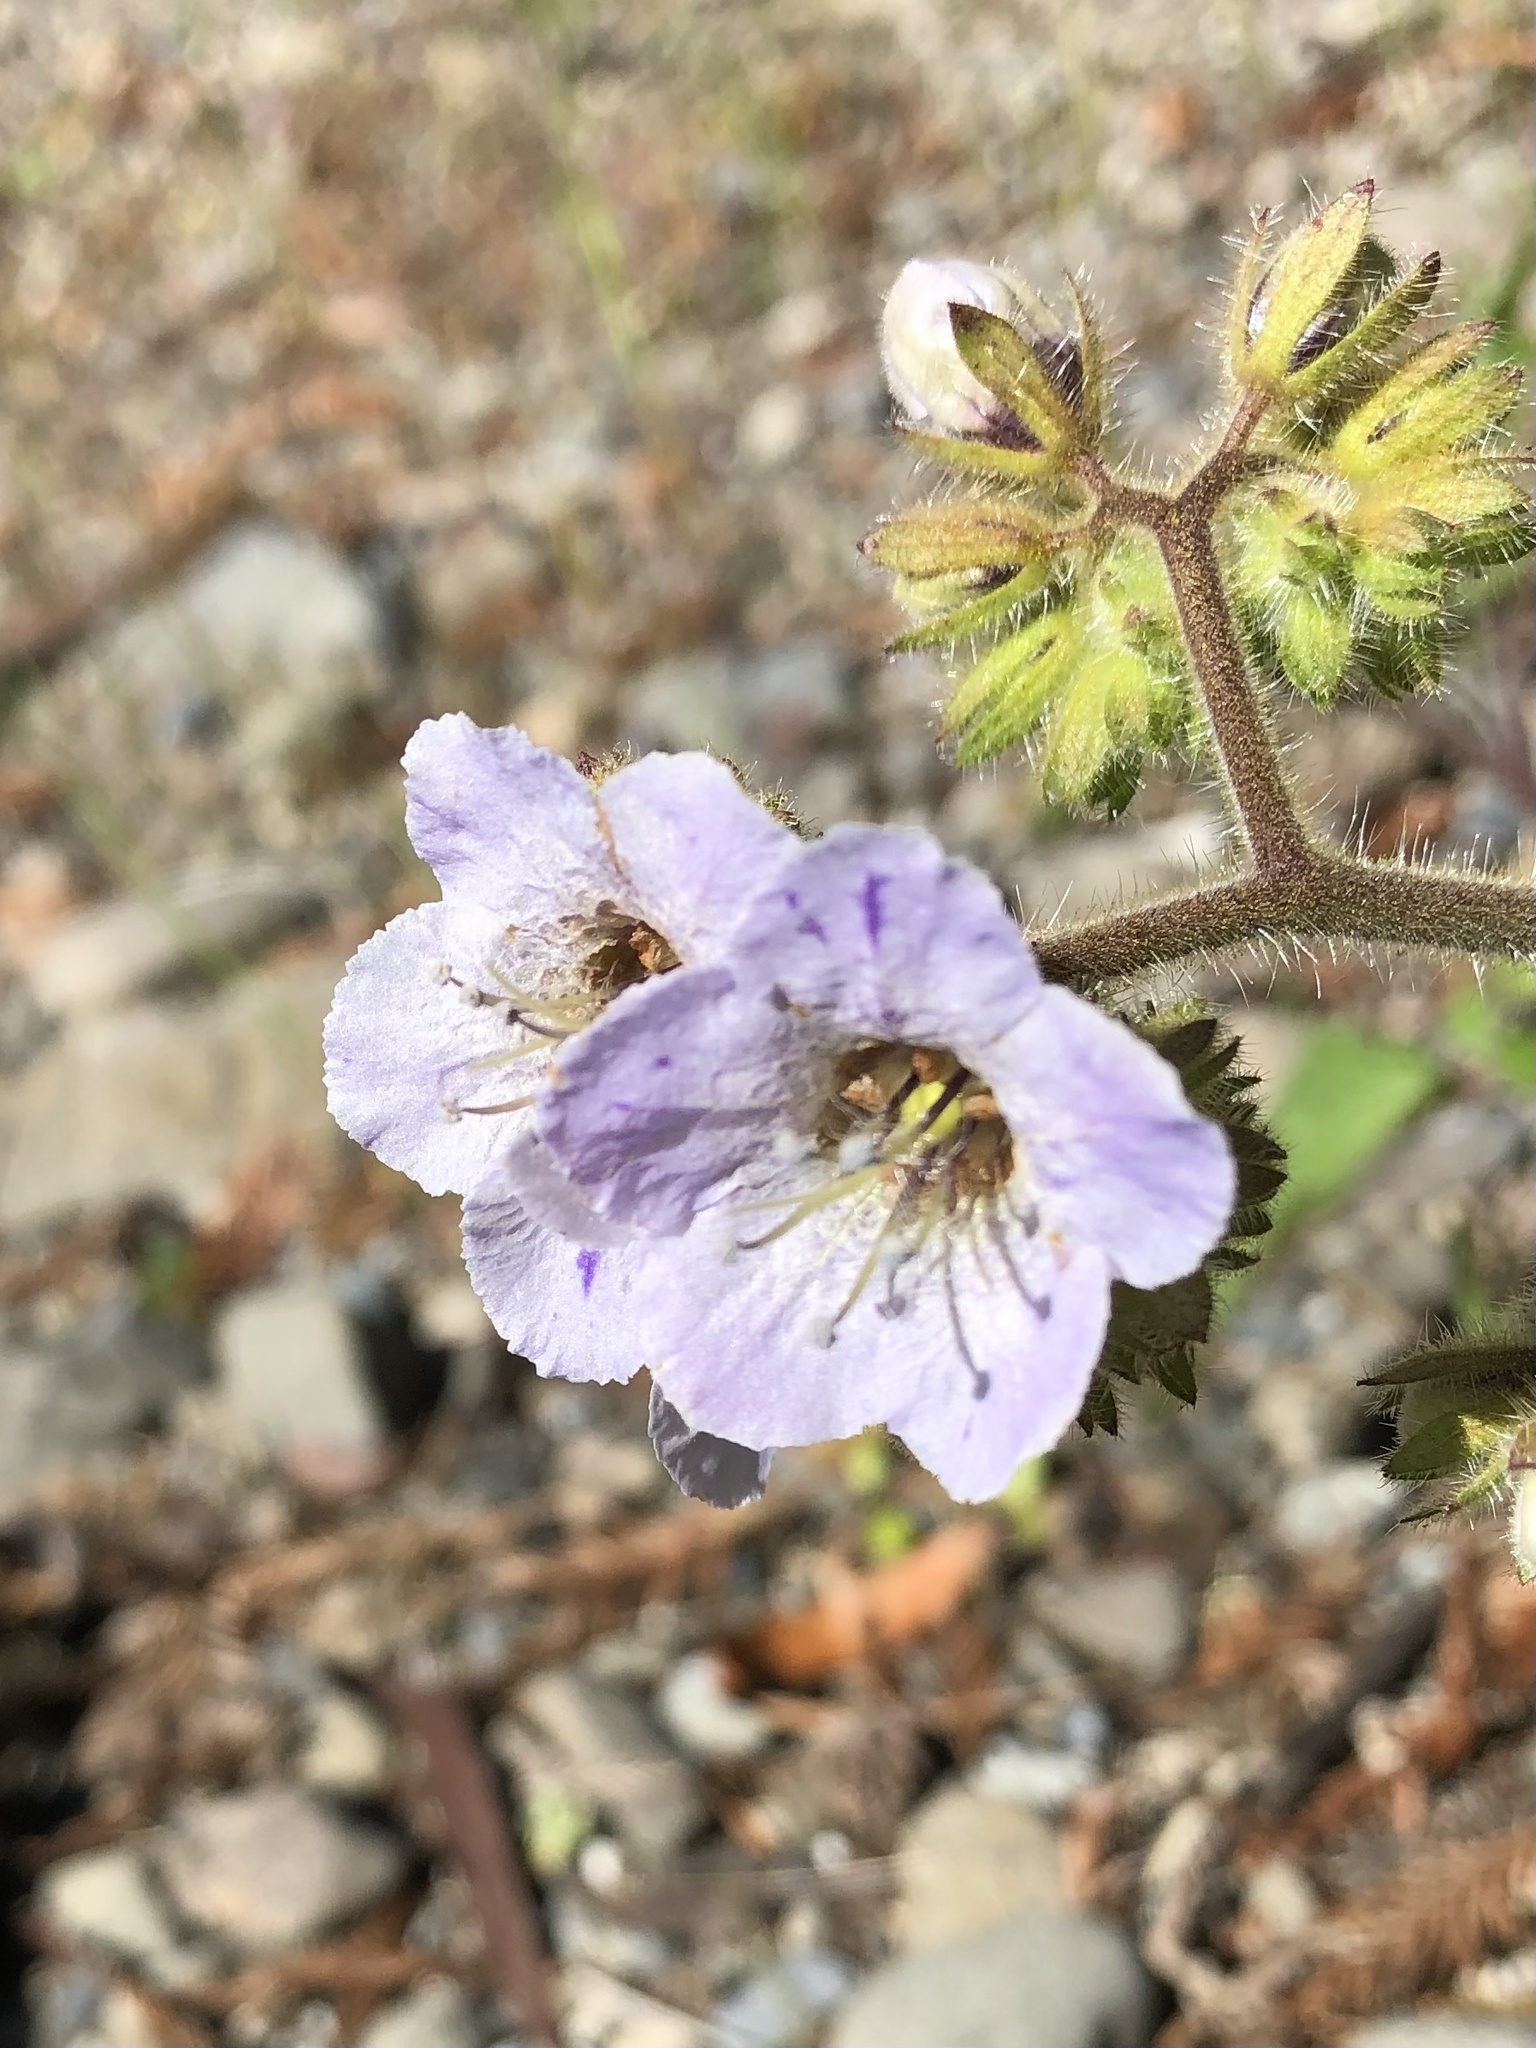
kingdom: Plantae
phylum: Tracheophyta
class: Magnoliopsida
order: Boraginales
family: Hydrophyllaceae
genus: Phacelia
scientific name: Phacelia bolanderi
